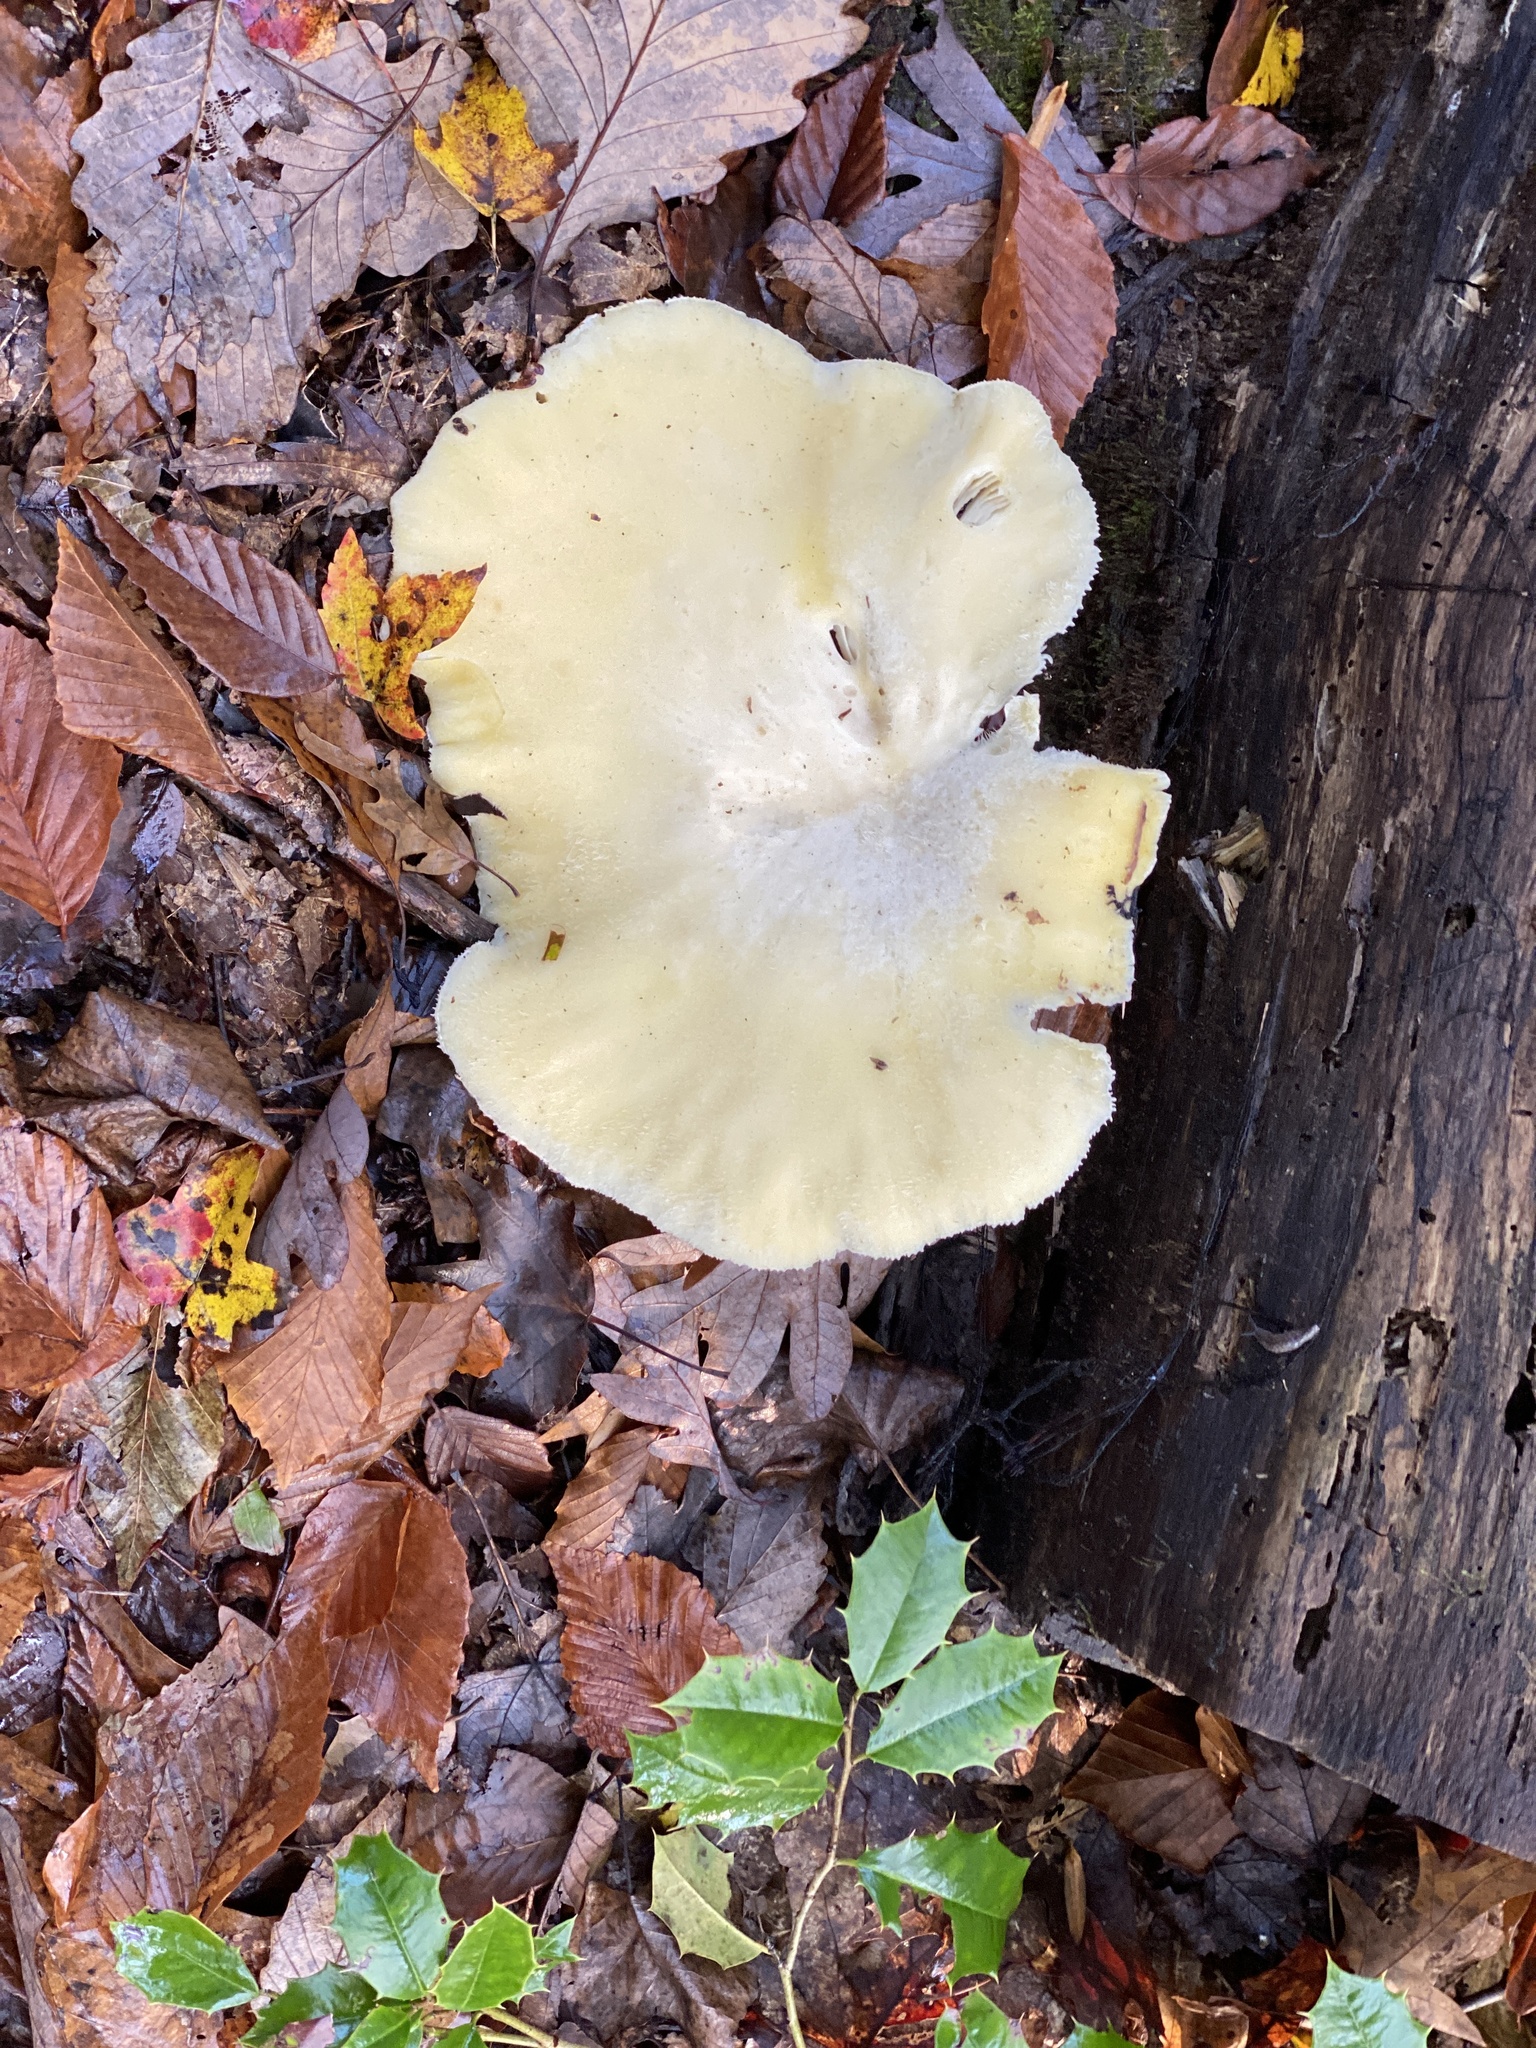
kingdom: Fungi
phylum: Basidiomycota
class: Agaricomycetes
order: Polyporales
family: Polyporaceae
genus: Lentinus
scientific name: Lentinus levis
